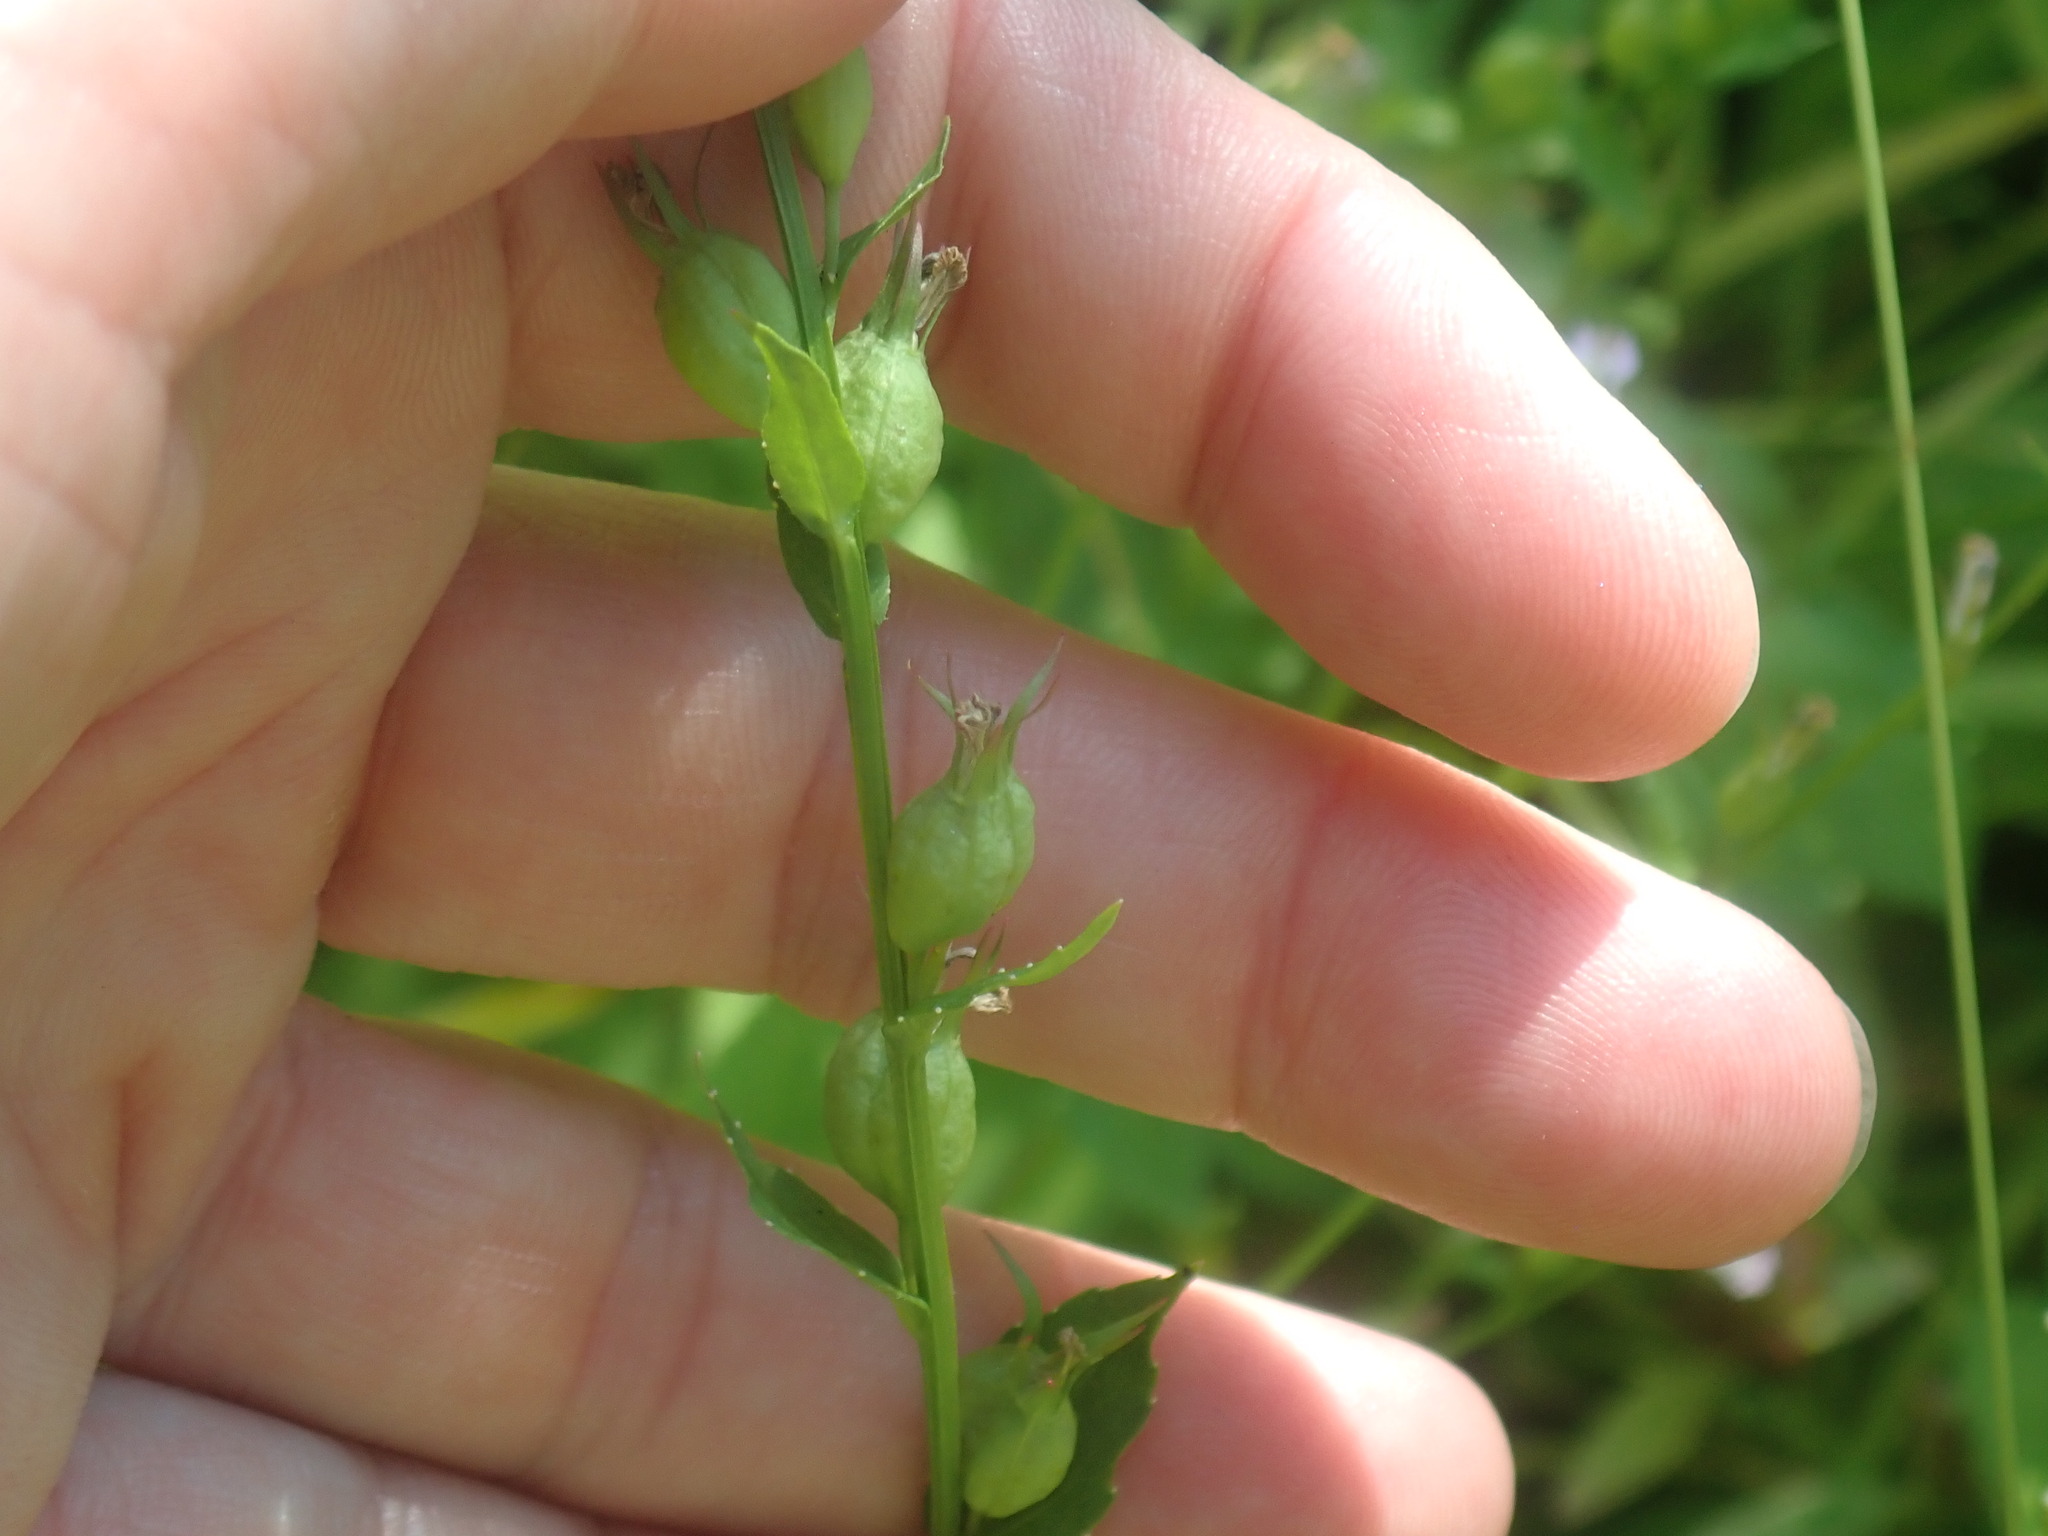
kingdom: Plantae
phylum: Tracheophyta
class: Magnoliopsida
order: Asterales
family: Campanulaceae
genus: Lobelia
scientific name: Lobelia inflata
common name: Indian tobacco
